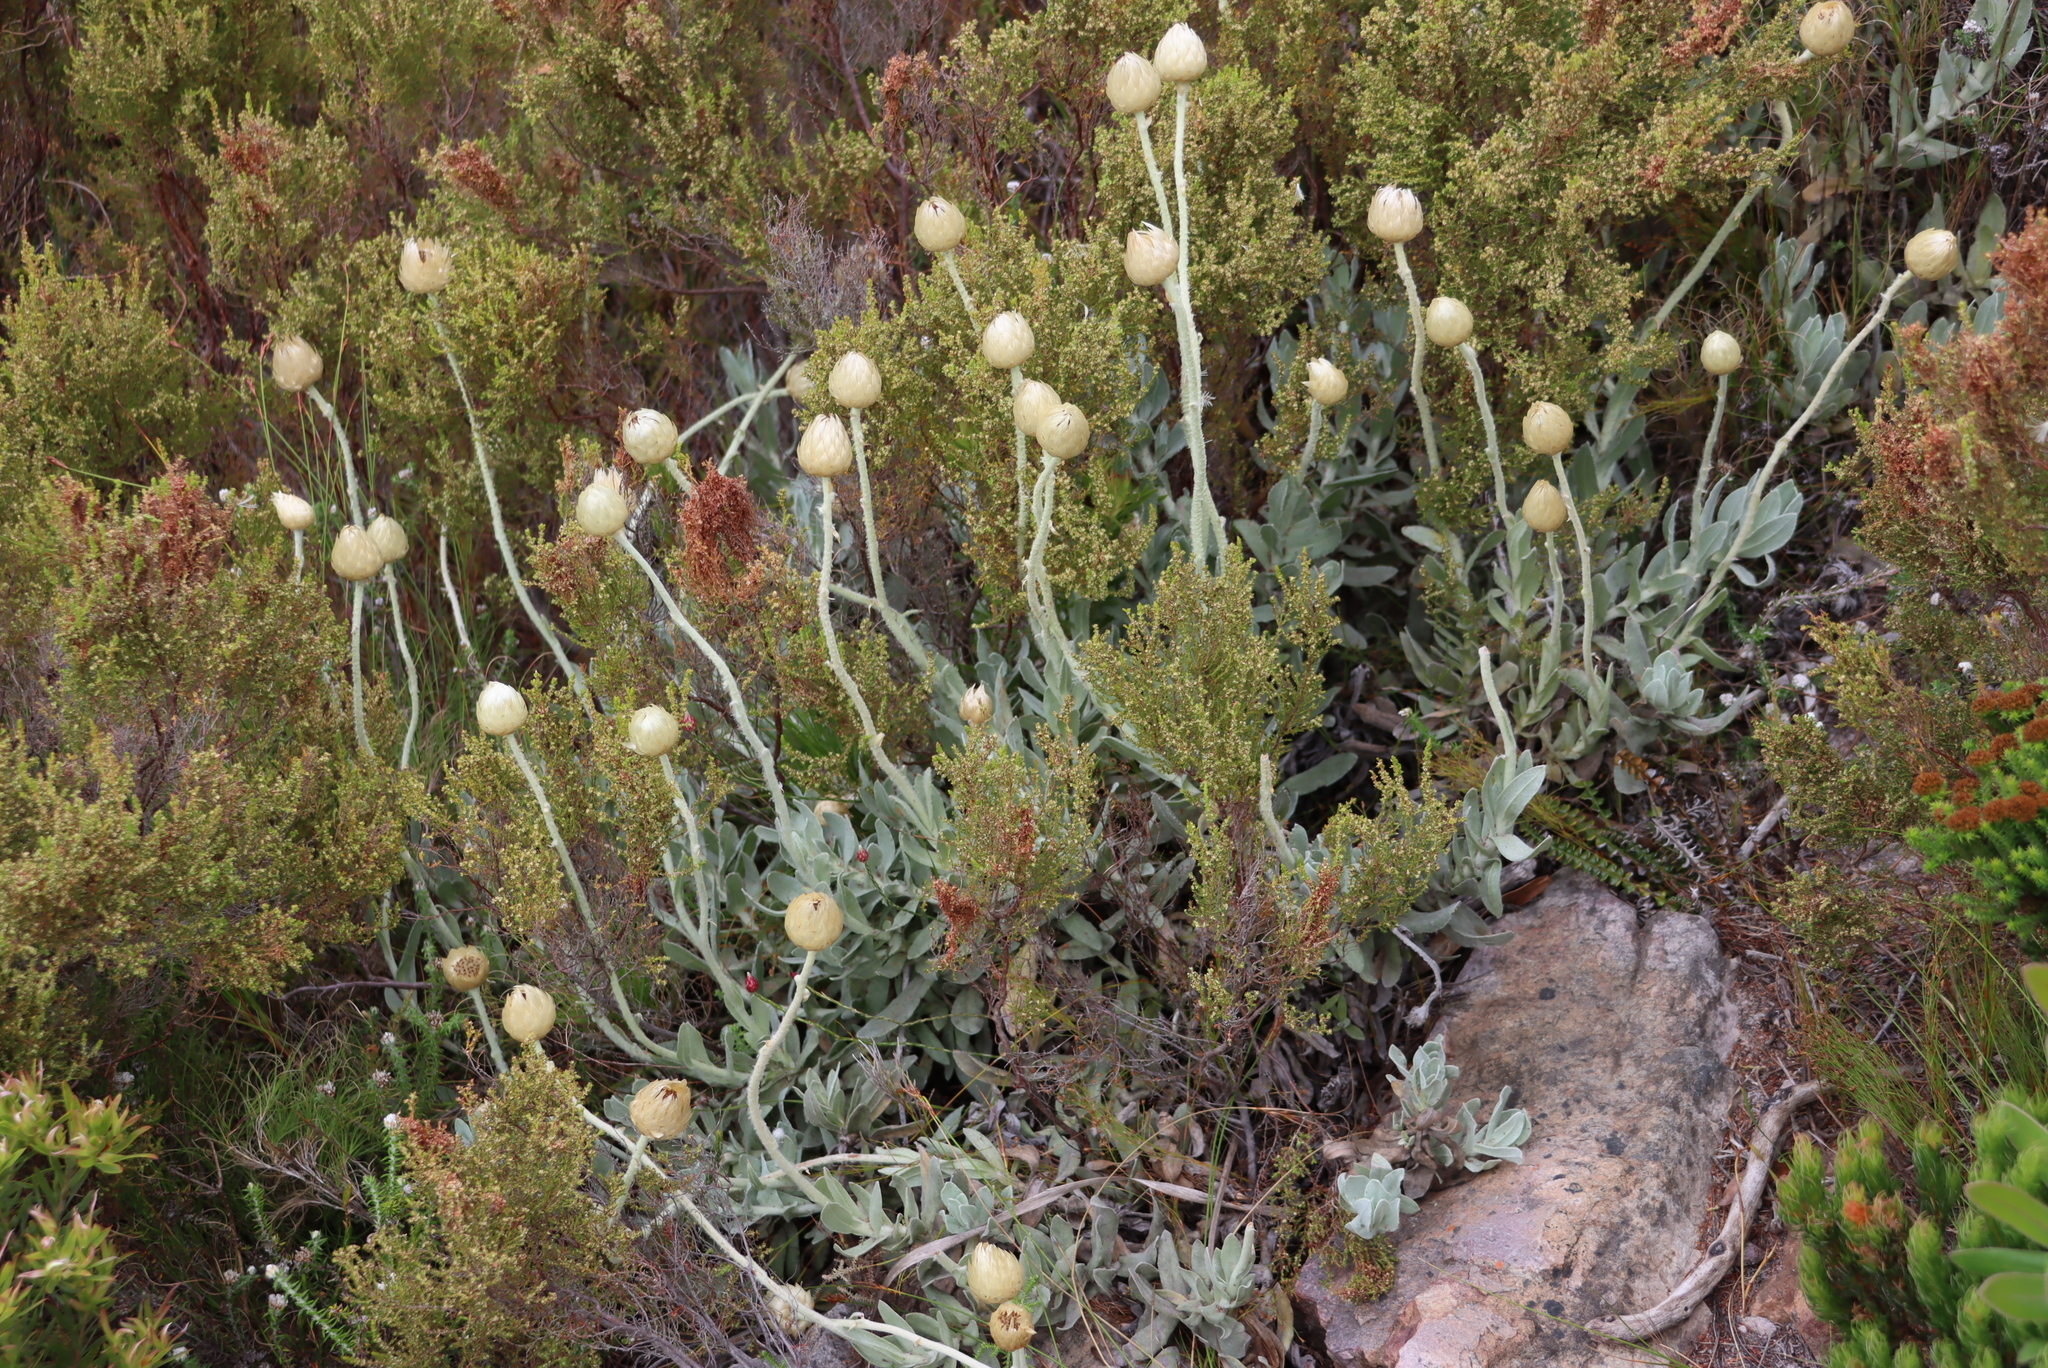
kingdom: Plantae
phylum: Tracheophyta
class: Magnoliopsida
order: Asterales
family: Asteraceae
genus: Syncarpha
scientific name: Syncarpha speciosissima
